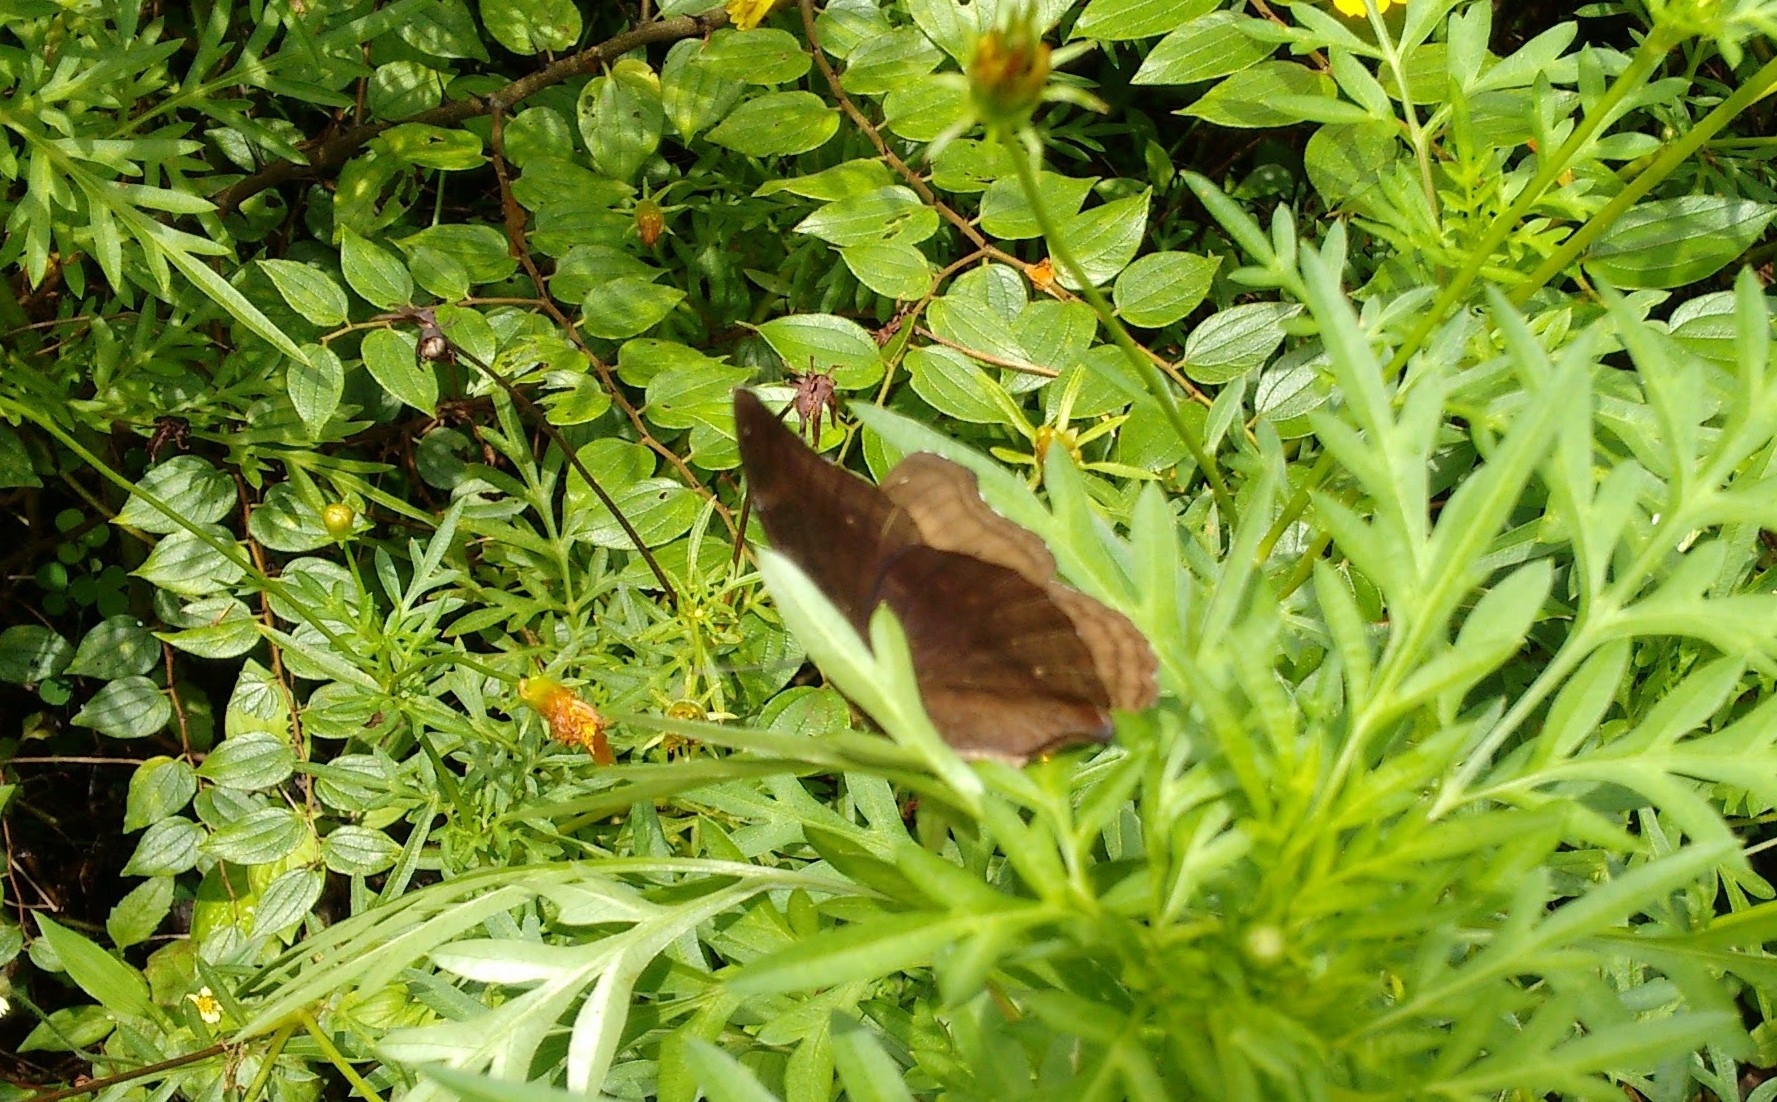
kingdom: Animalia
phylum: Arthropoda
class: Insecta
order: Lepidoptera
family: Nymphalidae
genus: Junonia
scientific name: Junonia iphita
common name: Chocolate pansy
